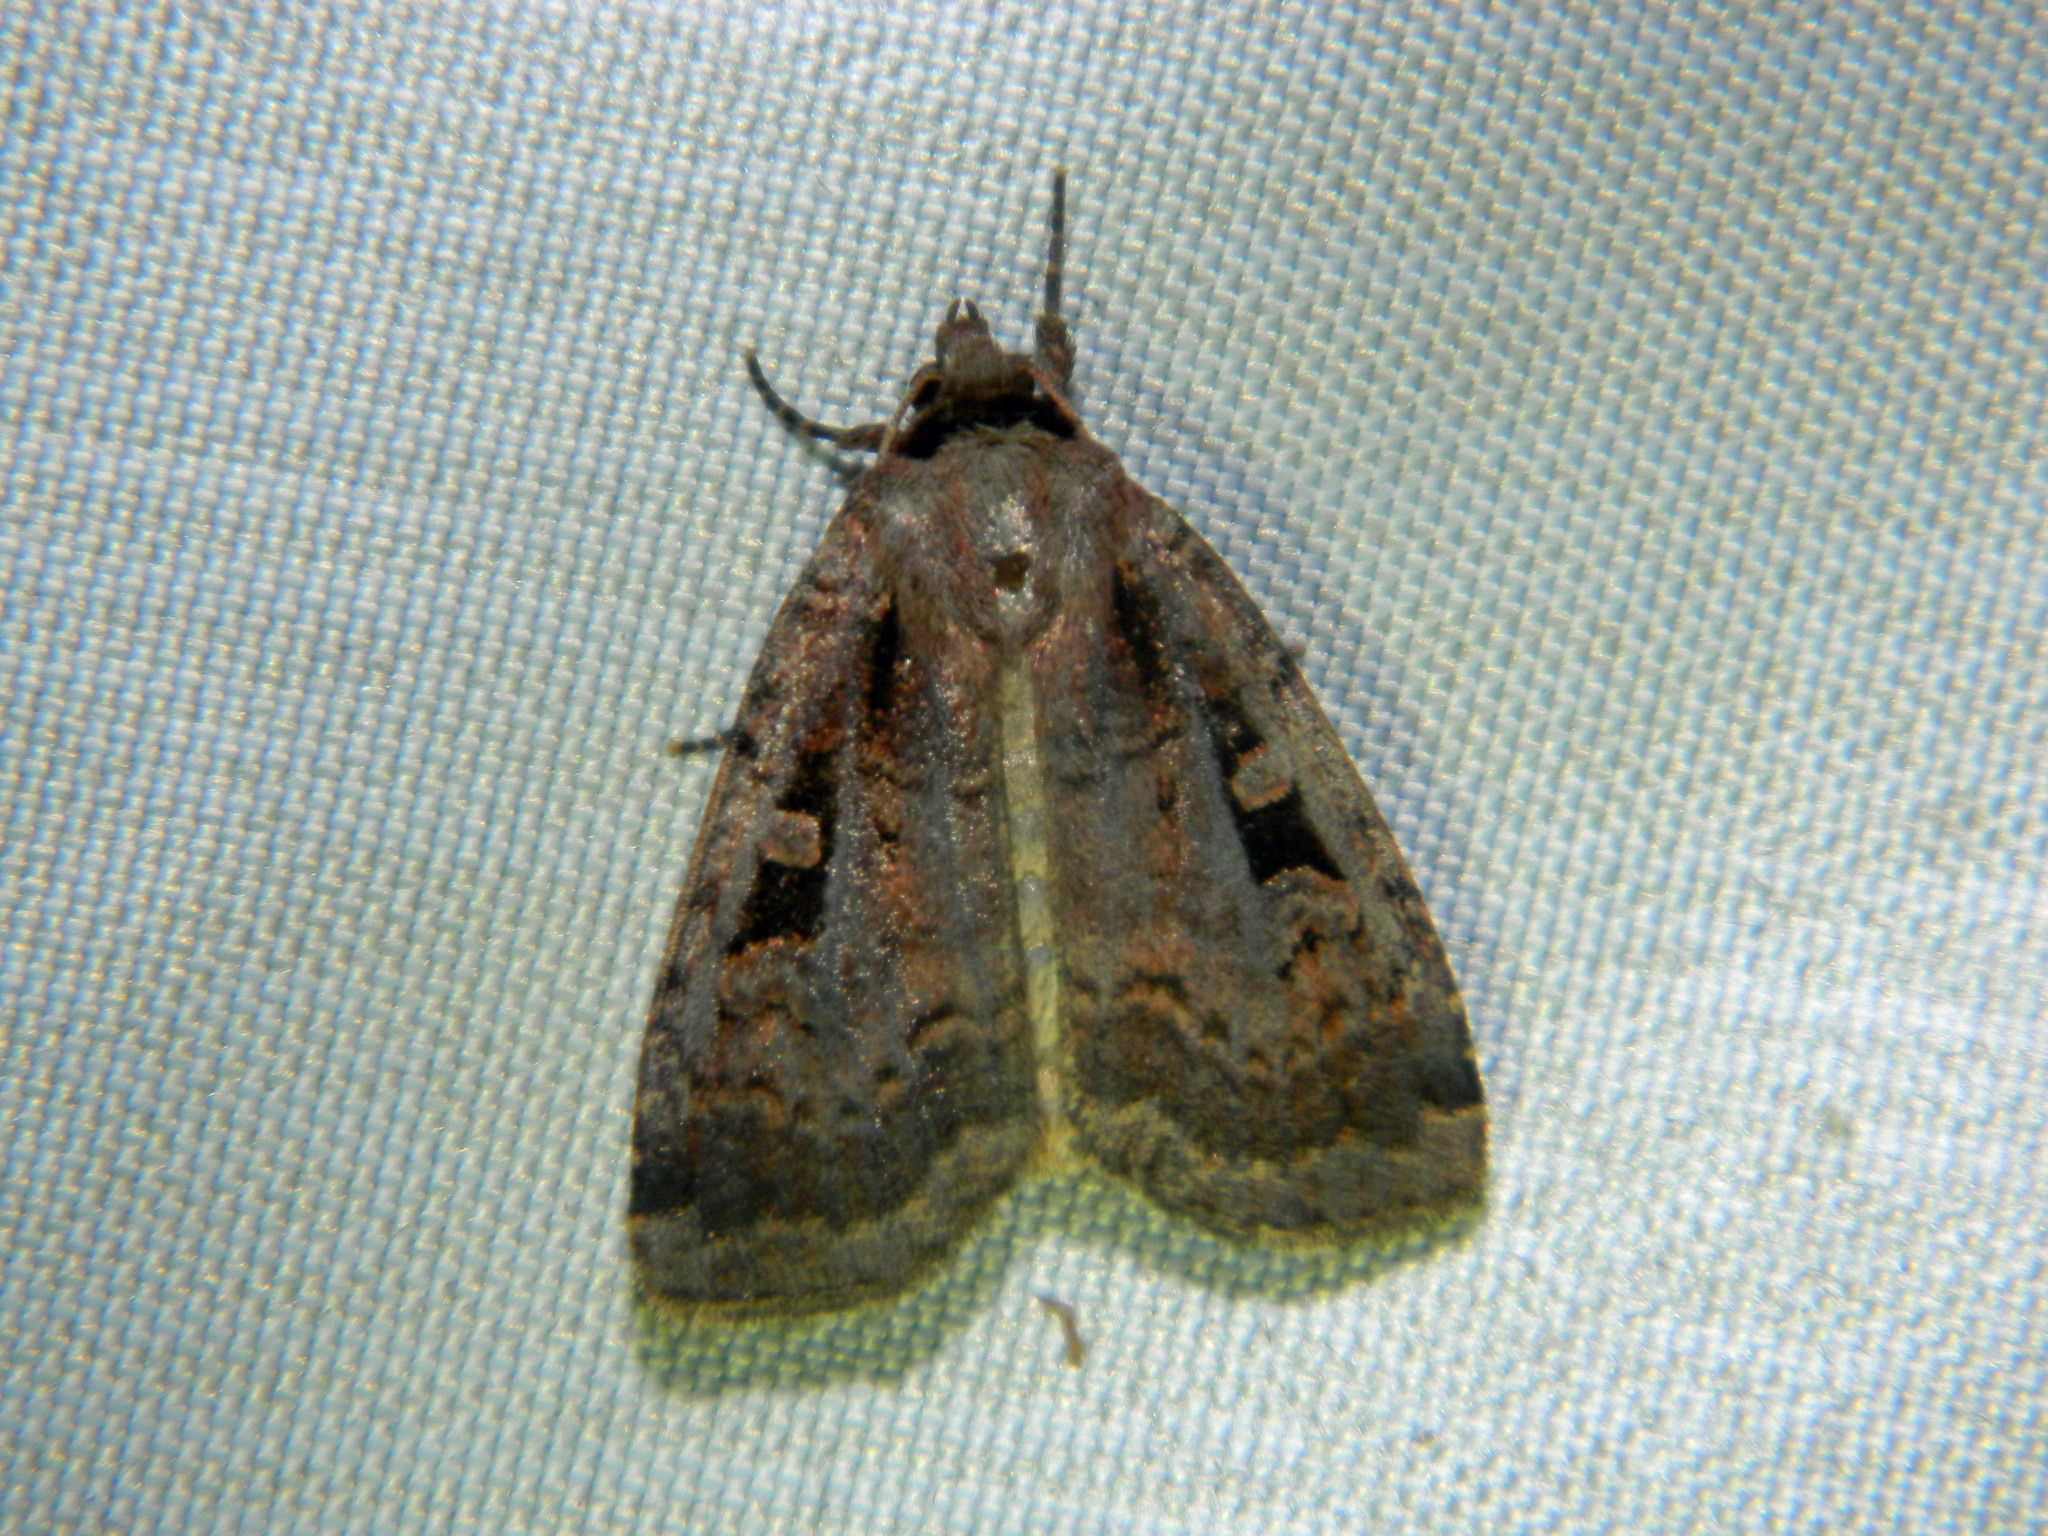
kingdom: Animalia
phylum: Arthropoda
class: Insecta
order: Lepidoptera
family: Noctuidae
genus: Eueretagrotis
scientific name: Eueretagrotis perattentus
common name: Two-spot dart moth
